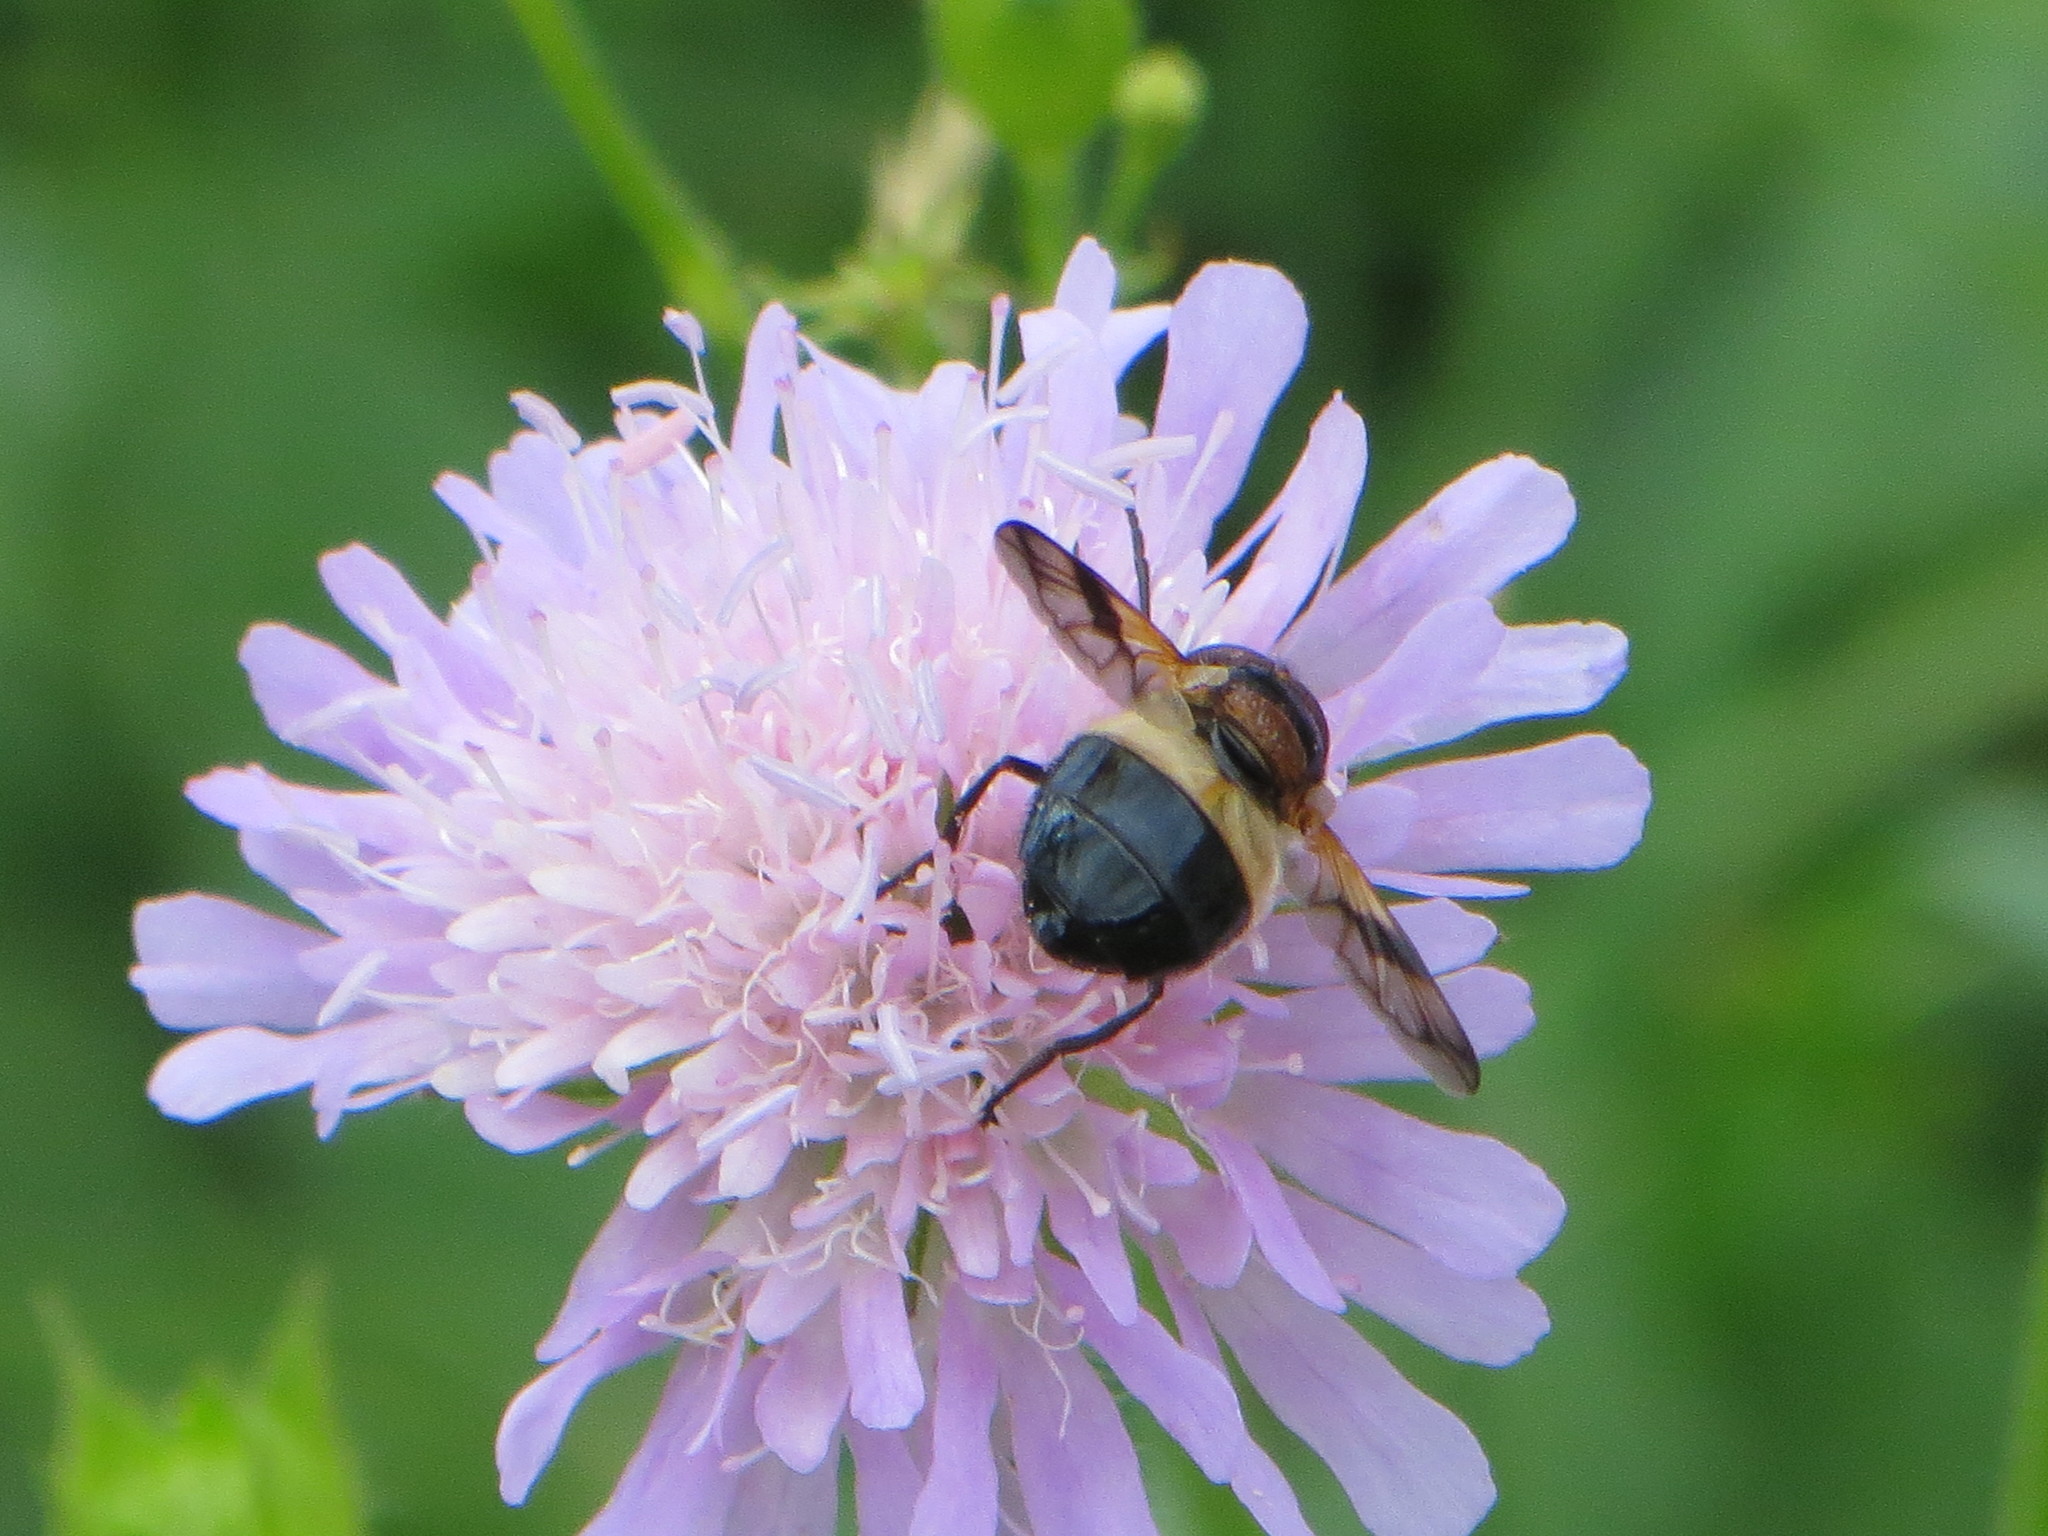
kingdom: Animalia
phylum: Arthropoda
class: Insecta
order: Diptera
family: Syrphidae
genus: Volucella
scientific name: Volucella pellucens
